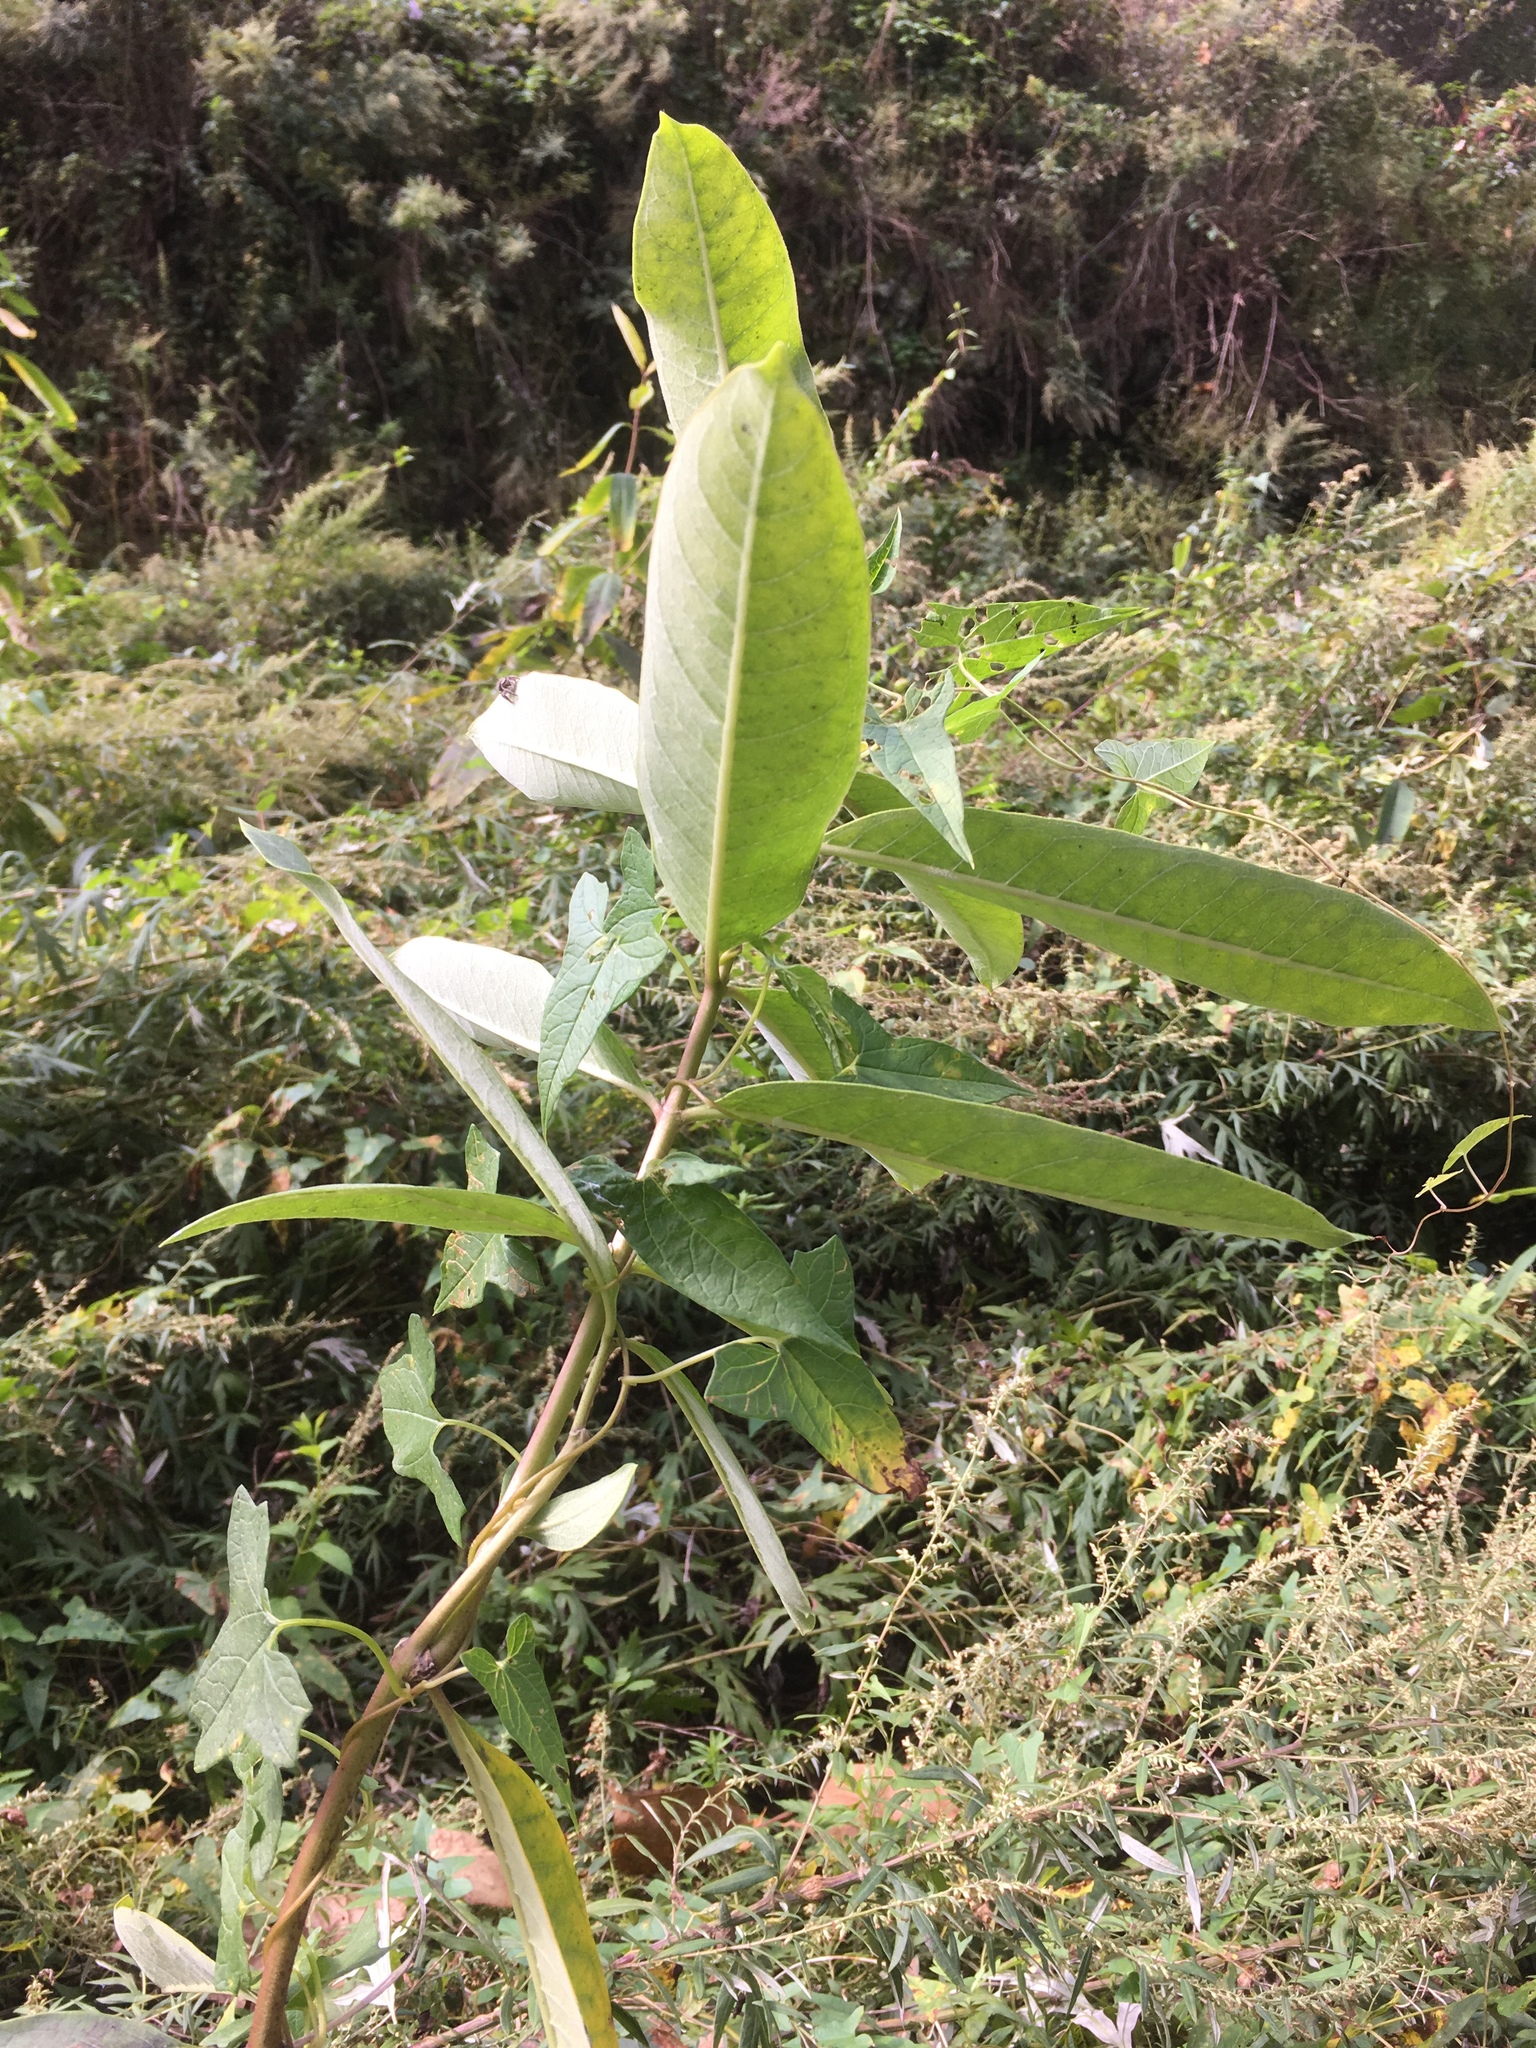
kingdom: Plantae
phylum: Tracheophyta
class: Magnoliopsida
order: Gentianales
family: Apocynaceae
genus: Asclepias
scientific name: Asclepias syriaca
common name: Common milkweed
